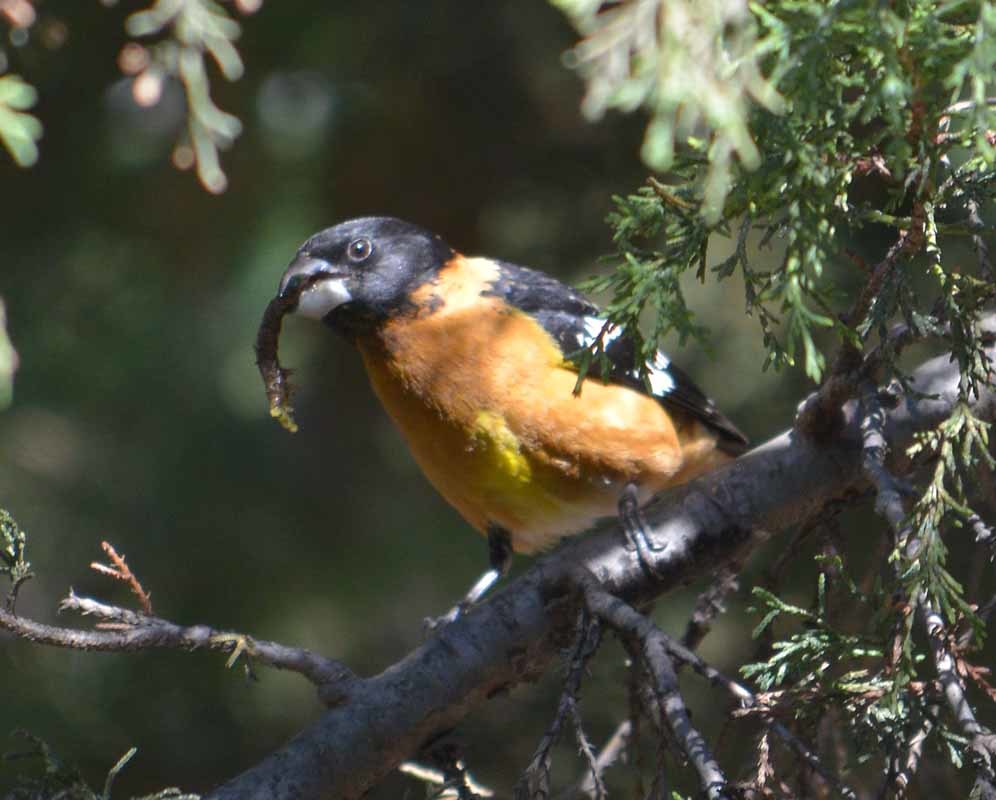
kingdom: Animalia
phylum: Chordata
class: Aves
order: Passeriformes
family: Cardinalidae
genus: Pheucticus
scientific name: Pheucticus melanocephalus
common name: Black-headed grosbeak
